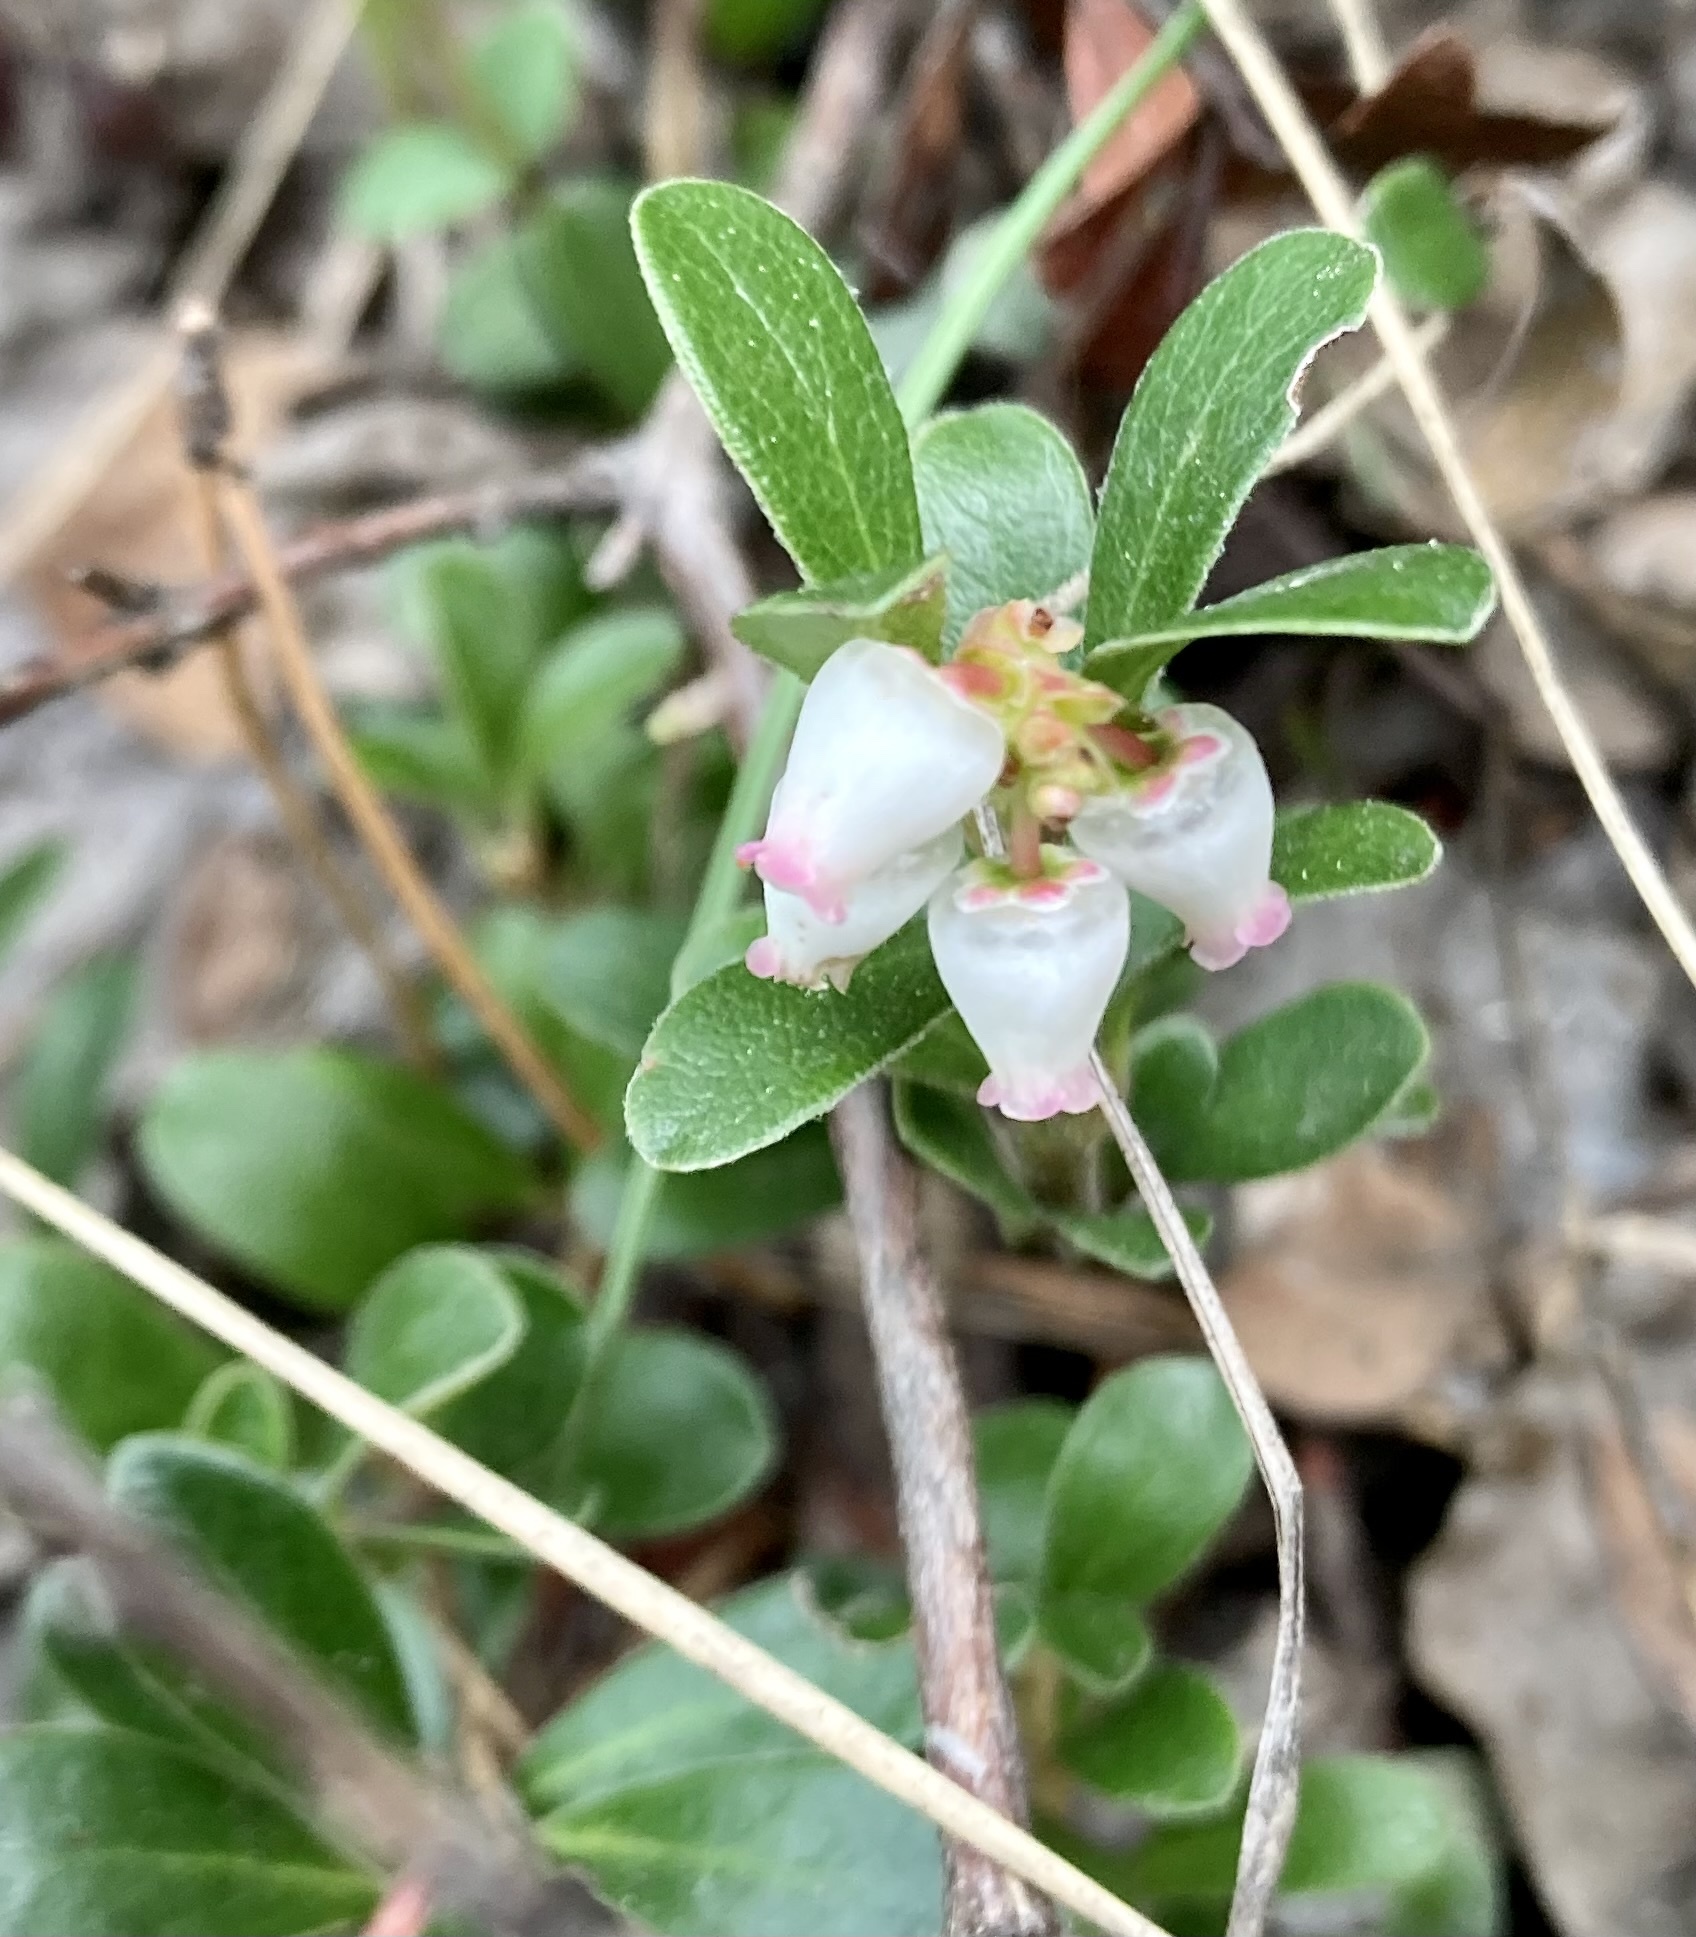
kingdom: Plantae
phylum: Tracheophyta
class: Magnoliopsida
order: Ericales
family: Ericaceae
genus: Arctostaphylos
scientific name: Arctostaphylos uva-ursi
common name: Bearberry
